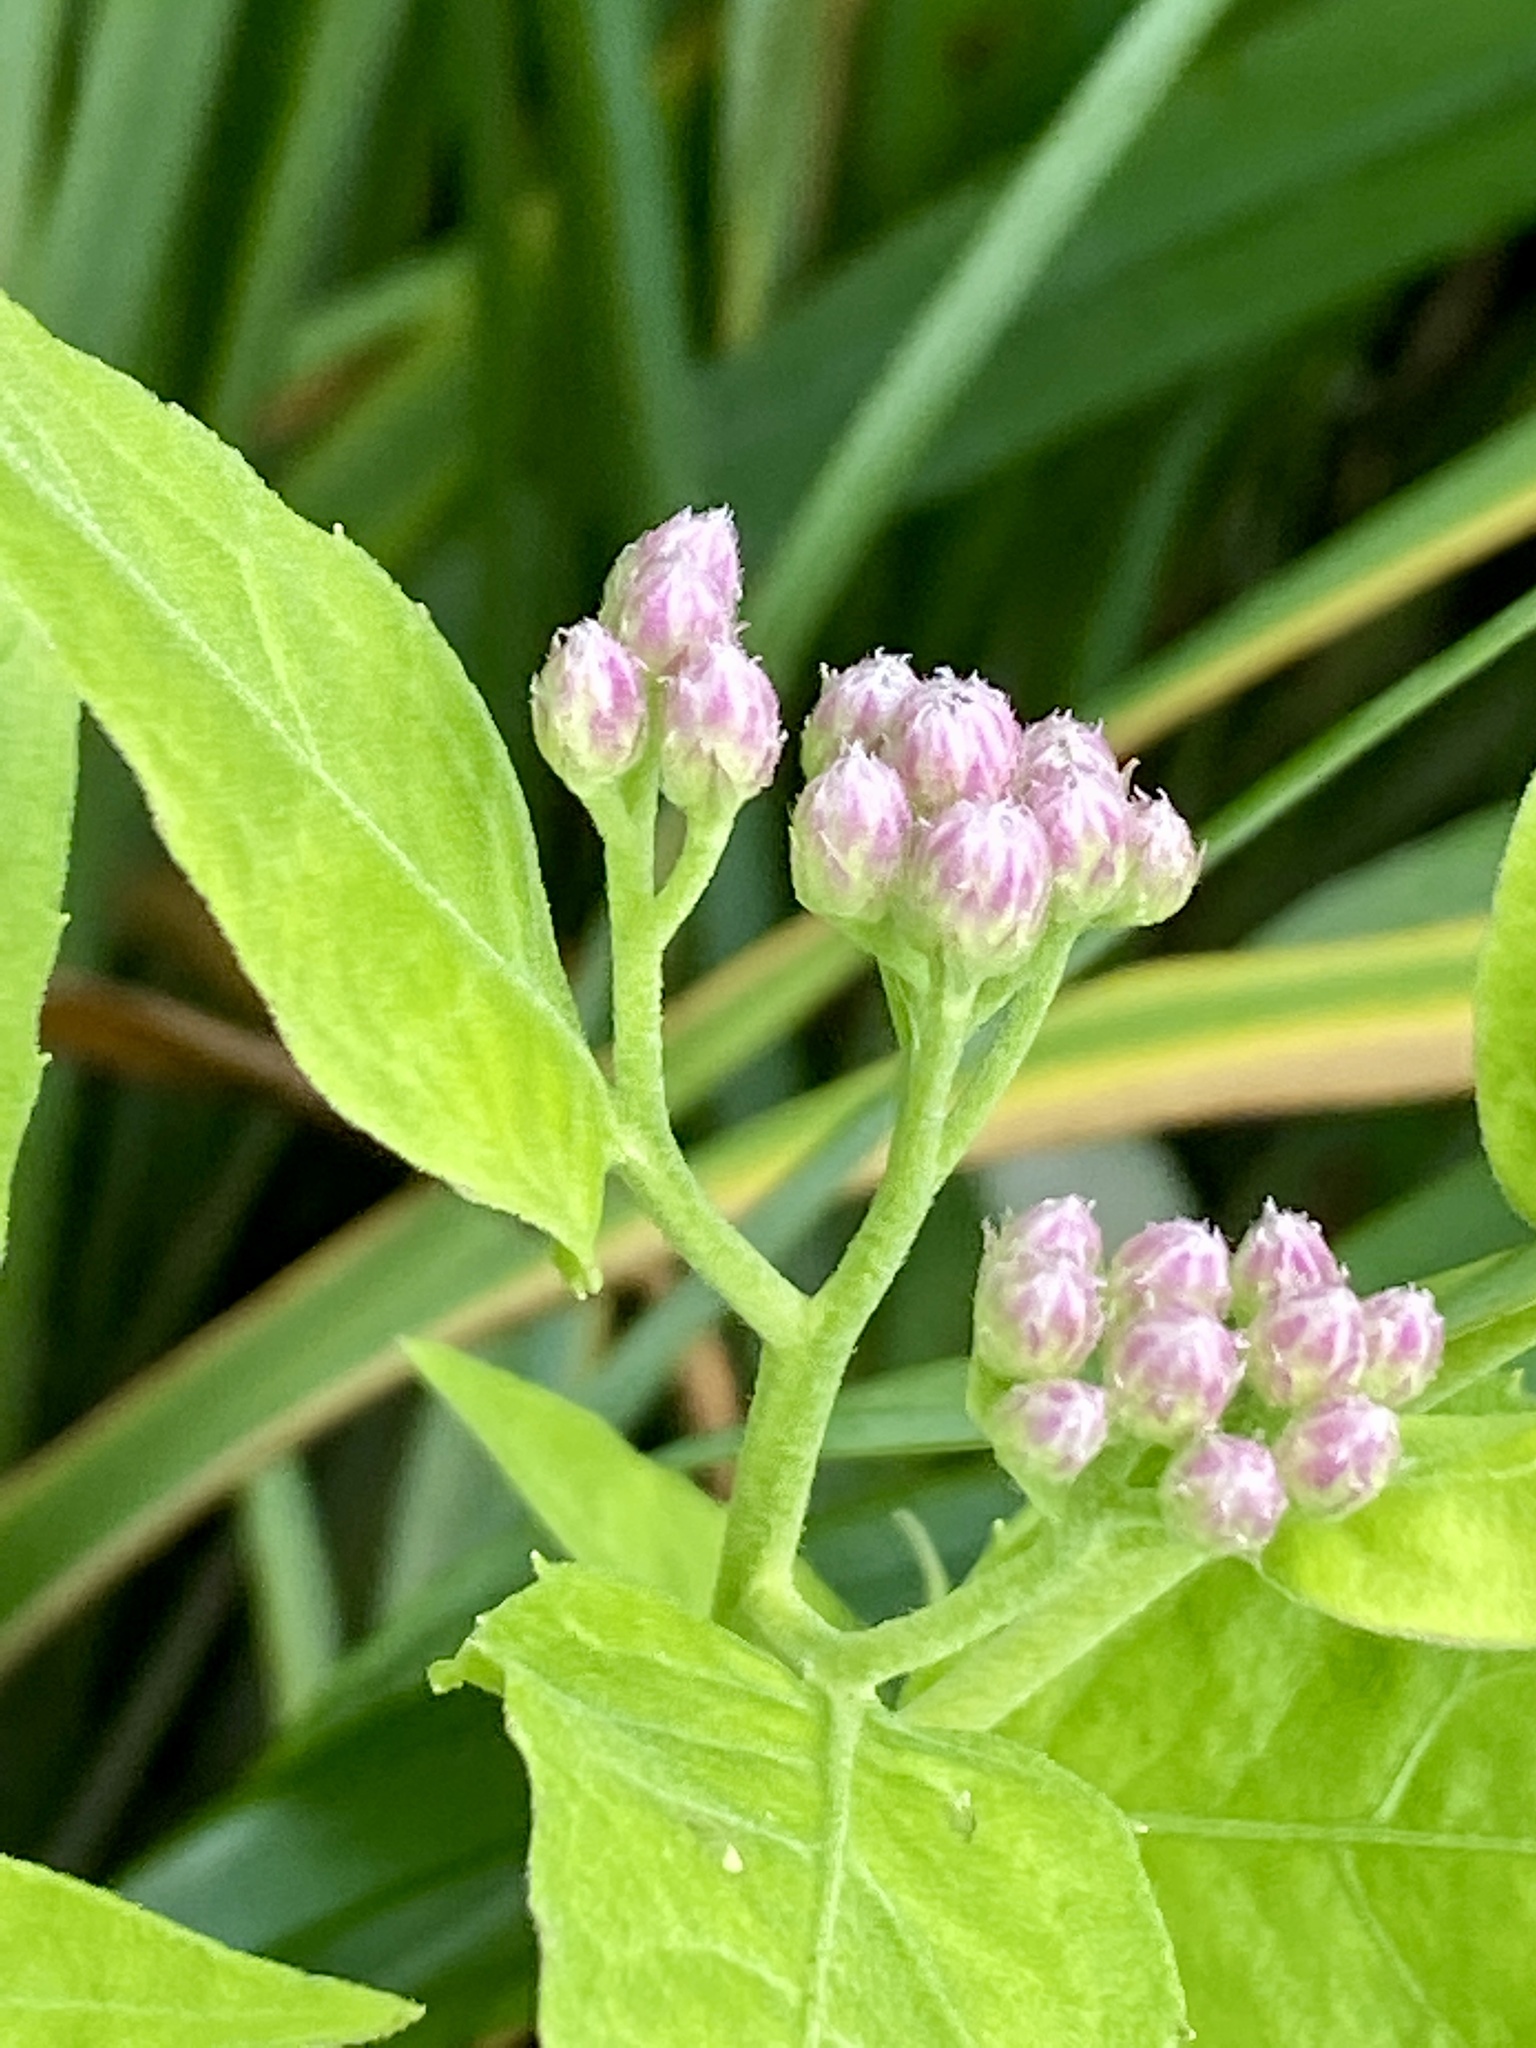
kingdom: Plantae
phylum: Tracheophyta
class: Magnoliopsida
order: Asterales
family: Asteraceae
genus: Pluchea
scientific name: Pluchea odorata
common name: Saltmarsh fleabane
